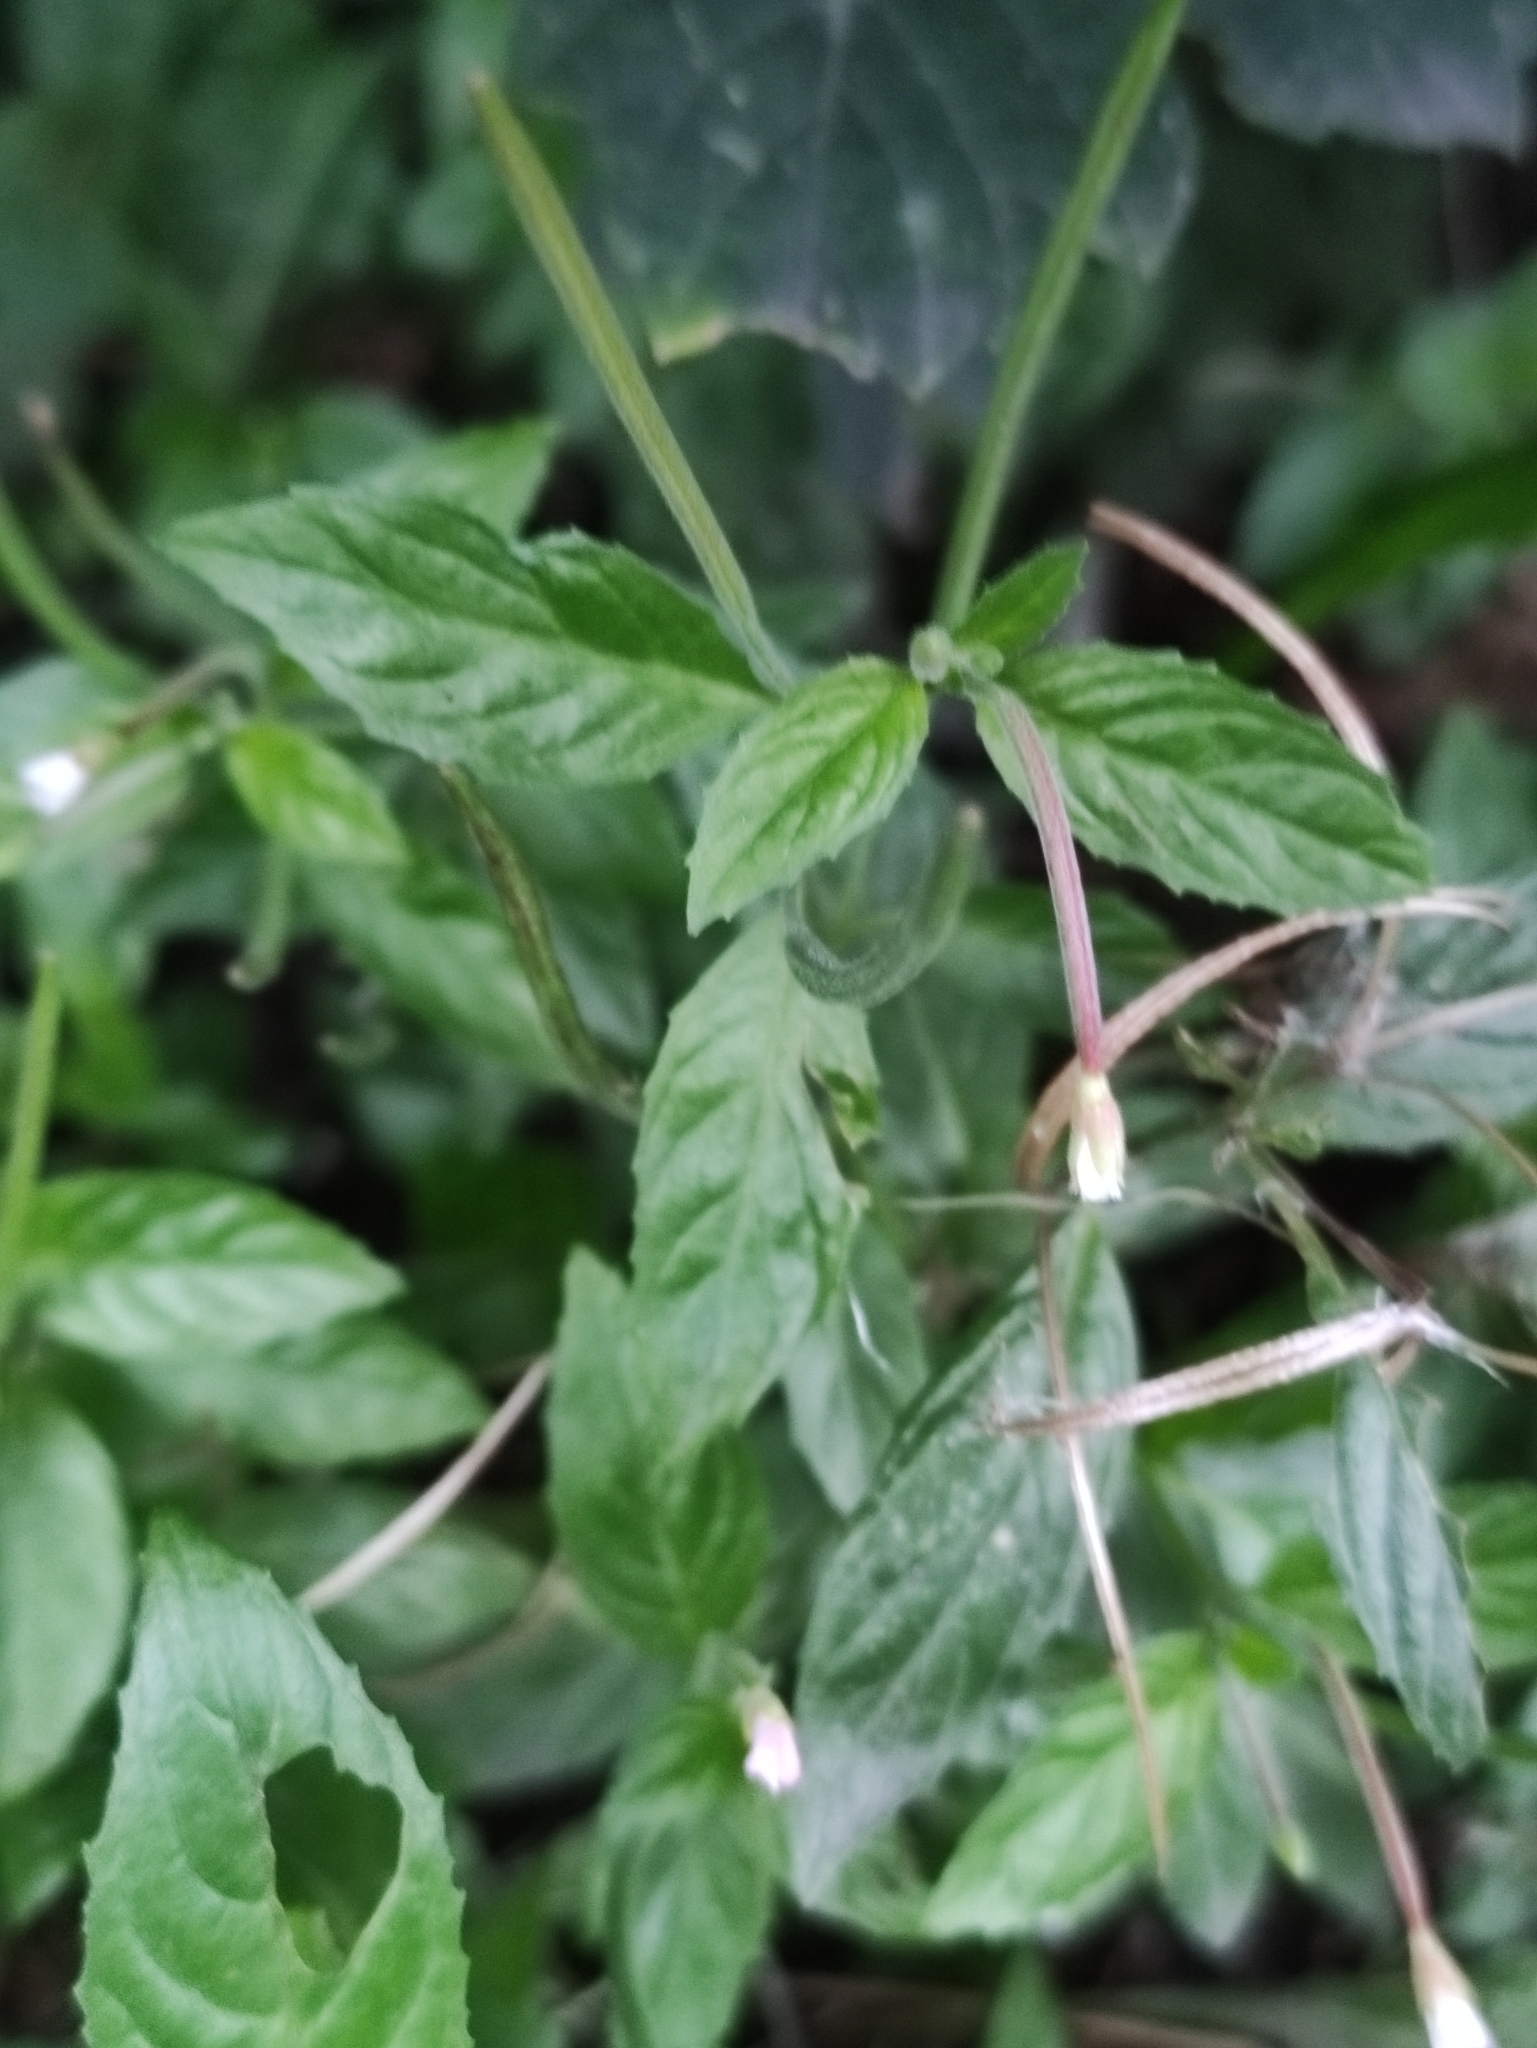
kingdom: Plantae
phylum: Tracheophyta
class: Magnoliopsida
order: Myrtales
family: Onagraceae
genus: Epilobium
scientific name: Epilobium roseum
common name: Pale willowherb
